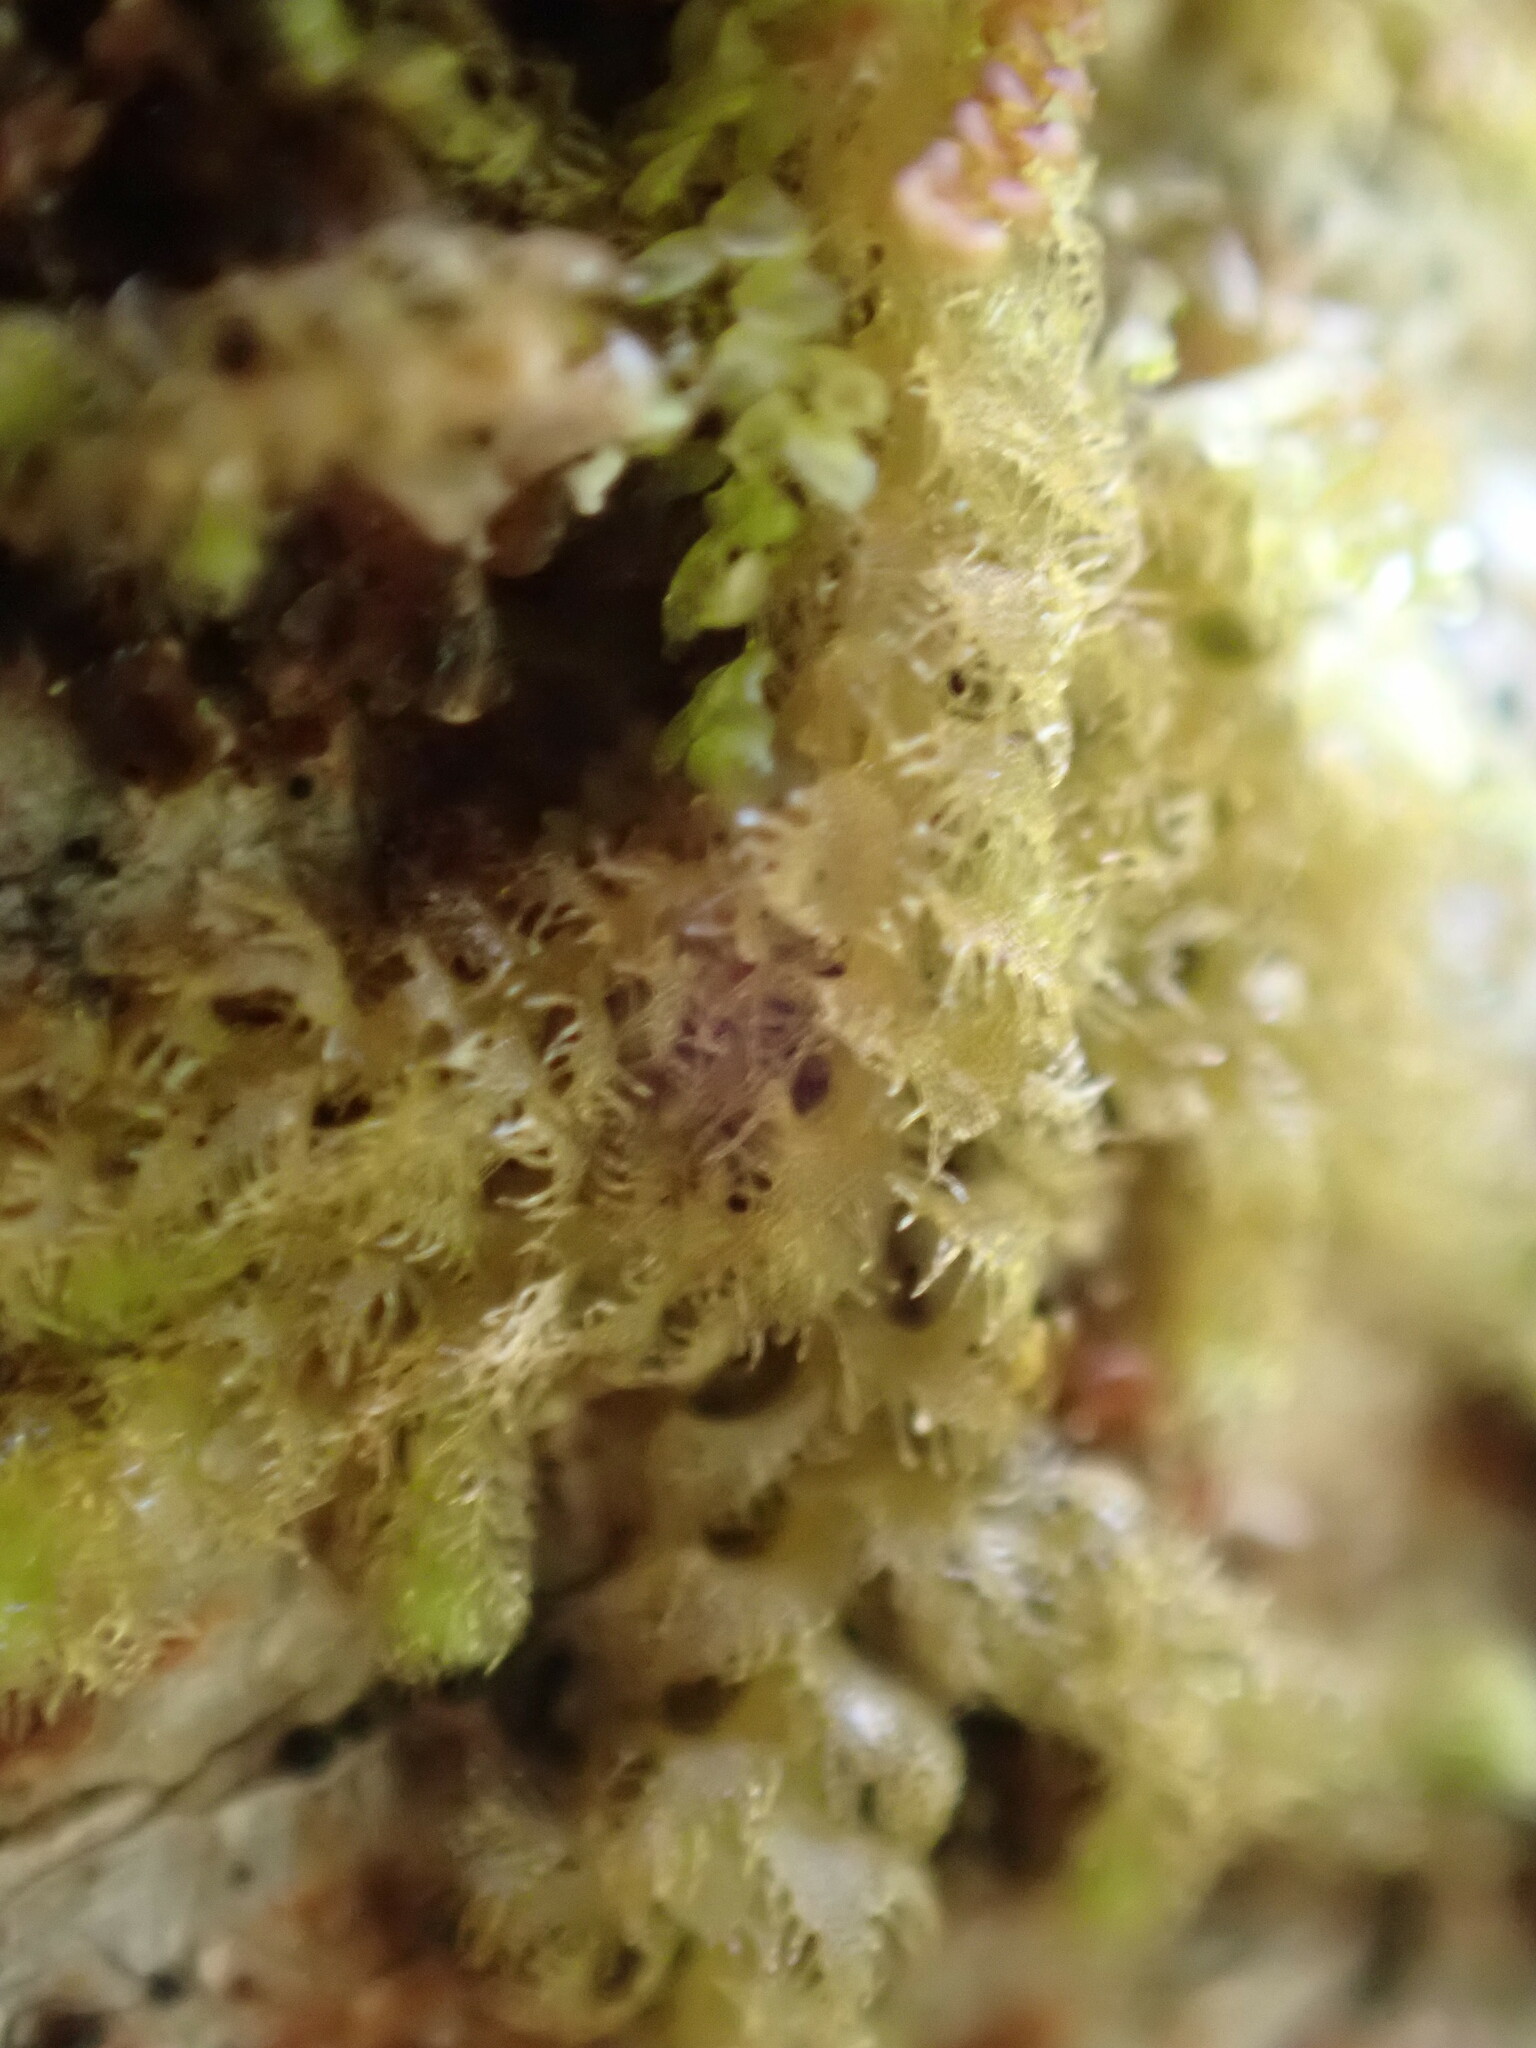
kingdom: Plantae
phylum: Marchantiophyta
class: Jungermanniopsida
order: Ptilidiales
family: Ptilidiaceae
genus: Ptilidium
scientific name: Ptilidium pulcherrimum
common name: Tree fringewort
